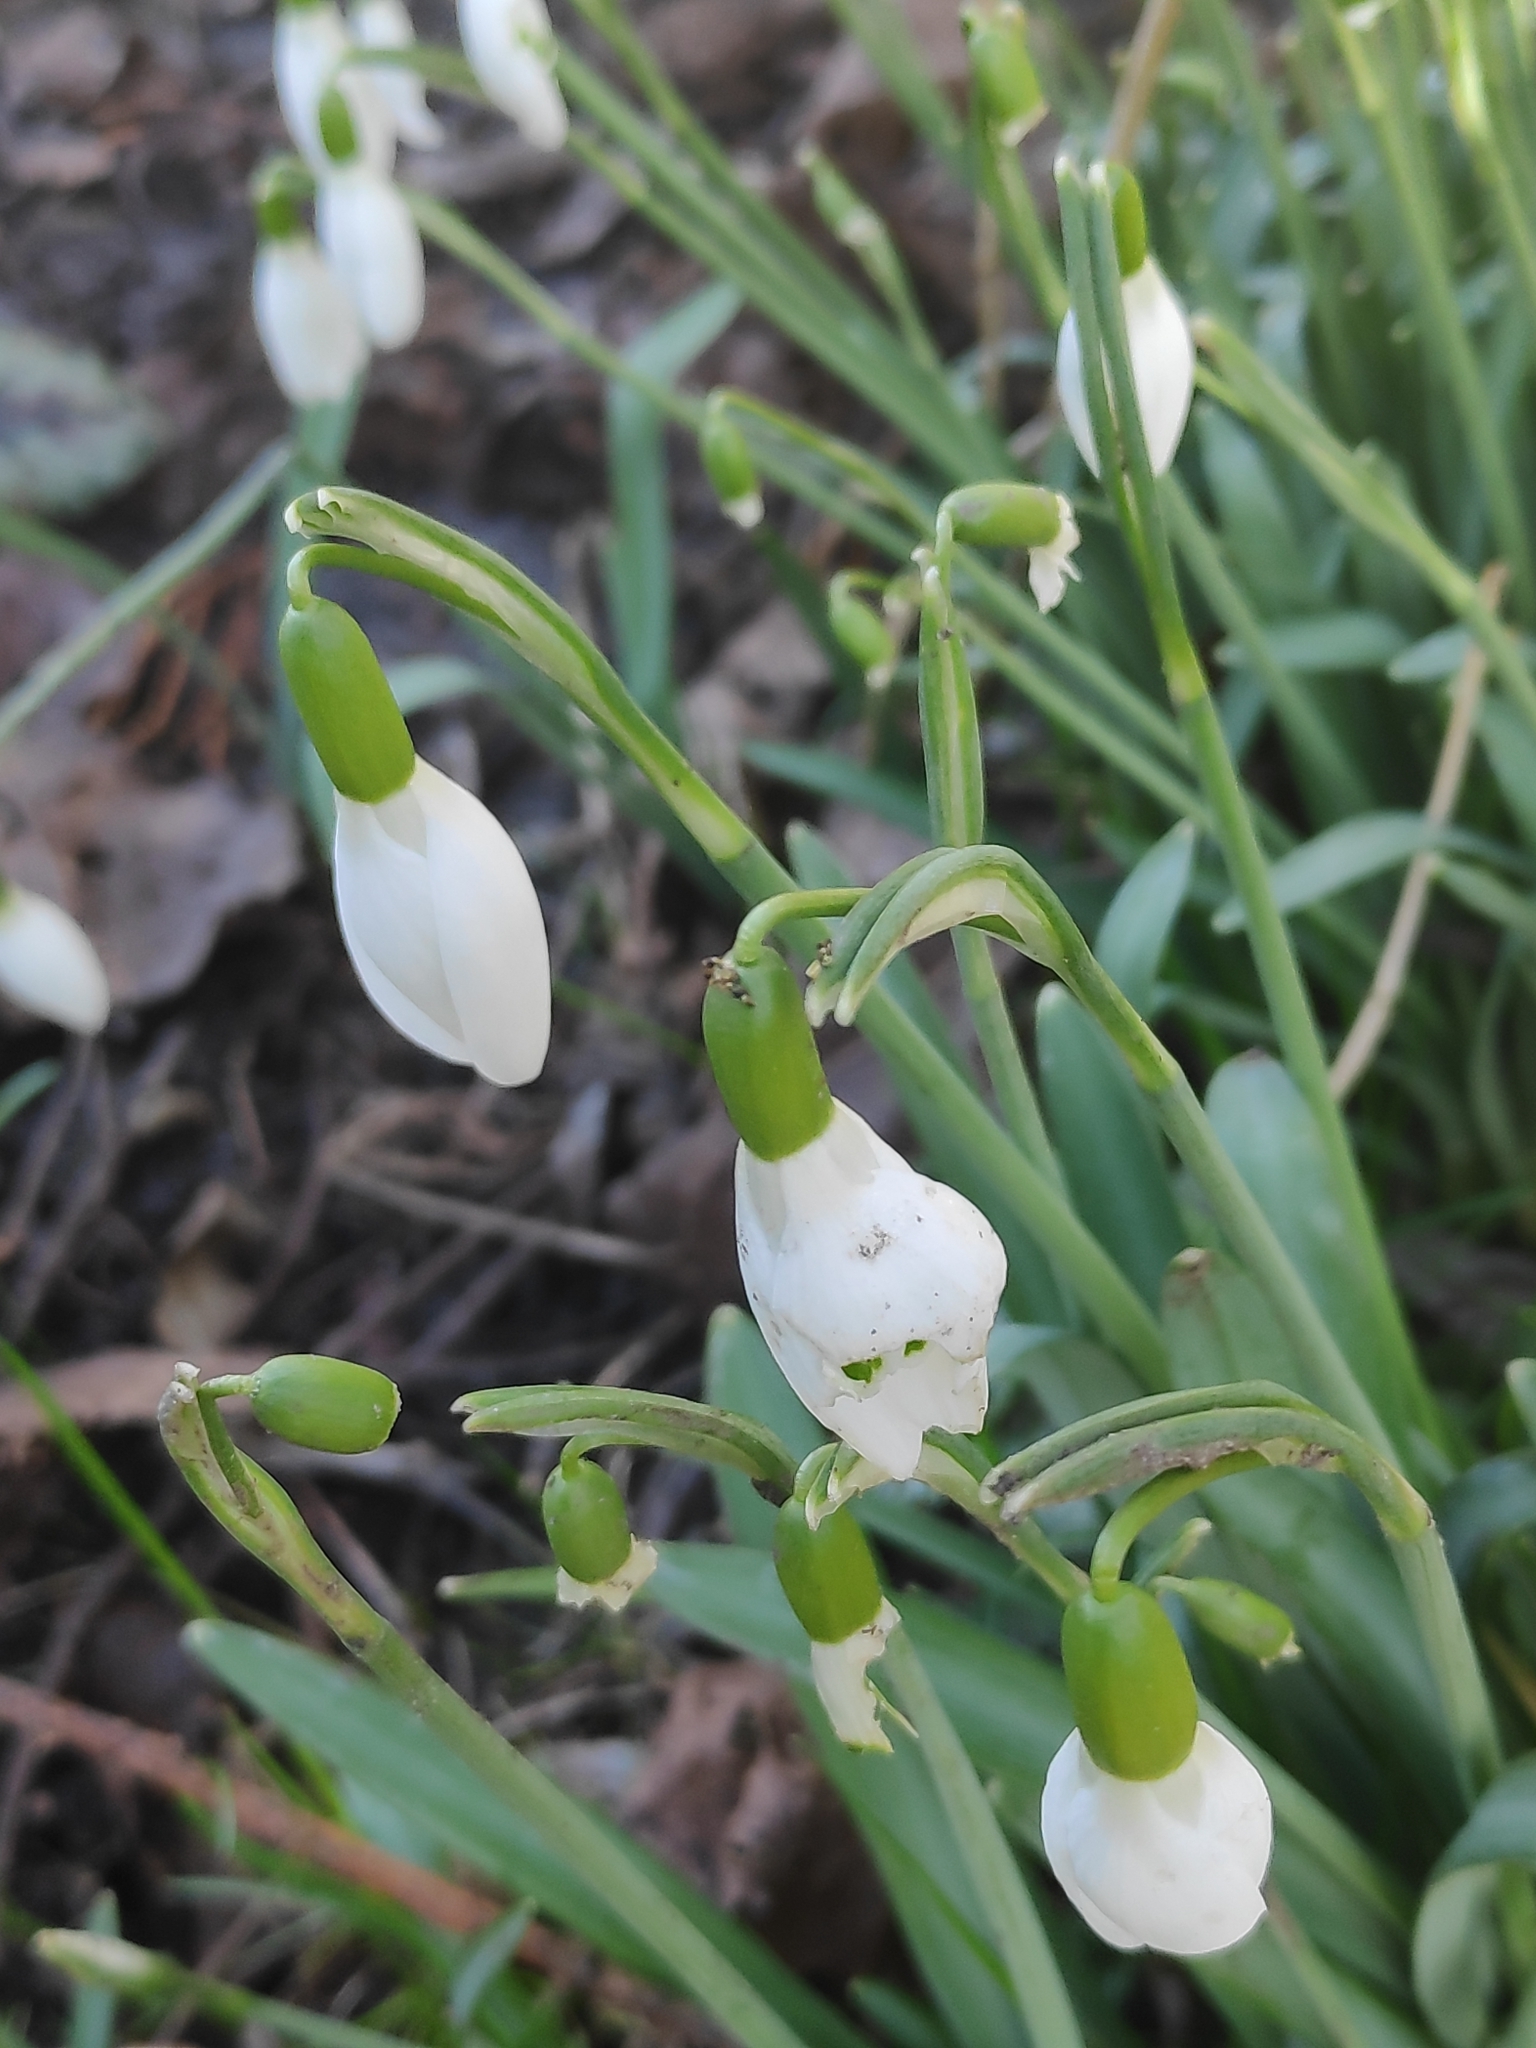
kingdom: Plantae
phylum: Tracheophyta
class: Liliopsida
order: Asparagales
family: Amaryllidaceae
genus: Galanthus
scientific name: Galanthus nivalis
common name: Snowdrop
